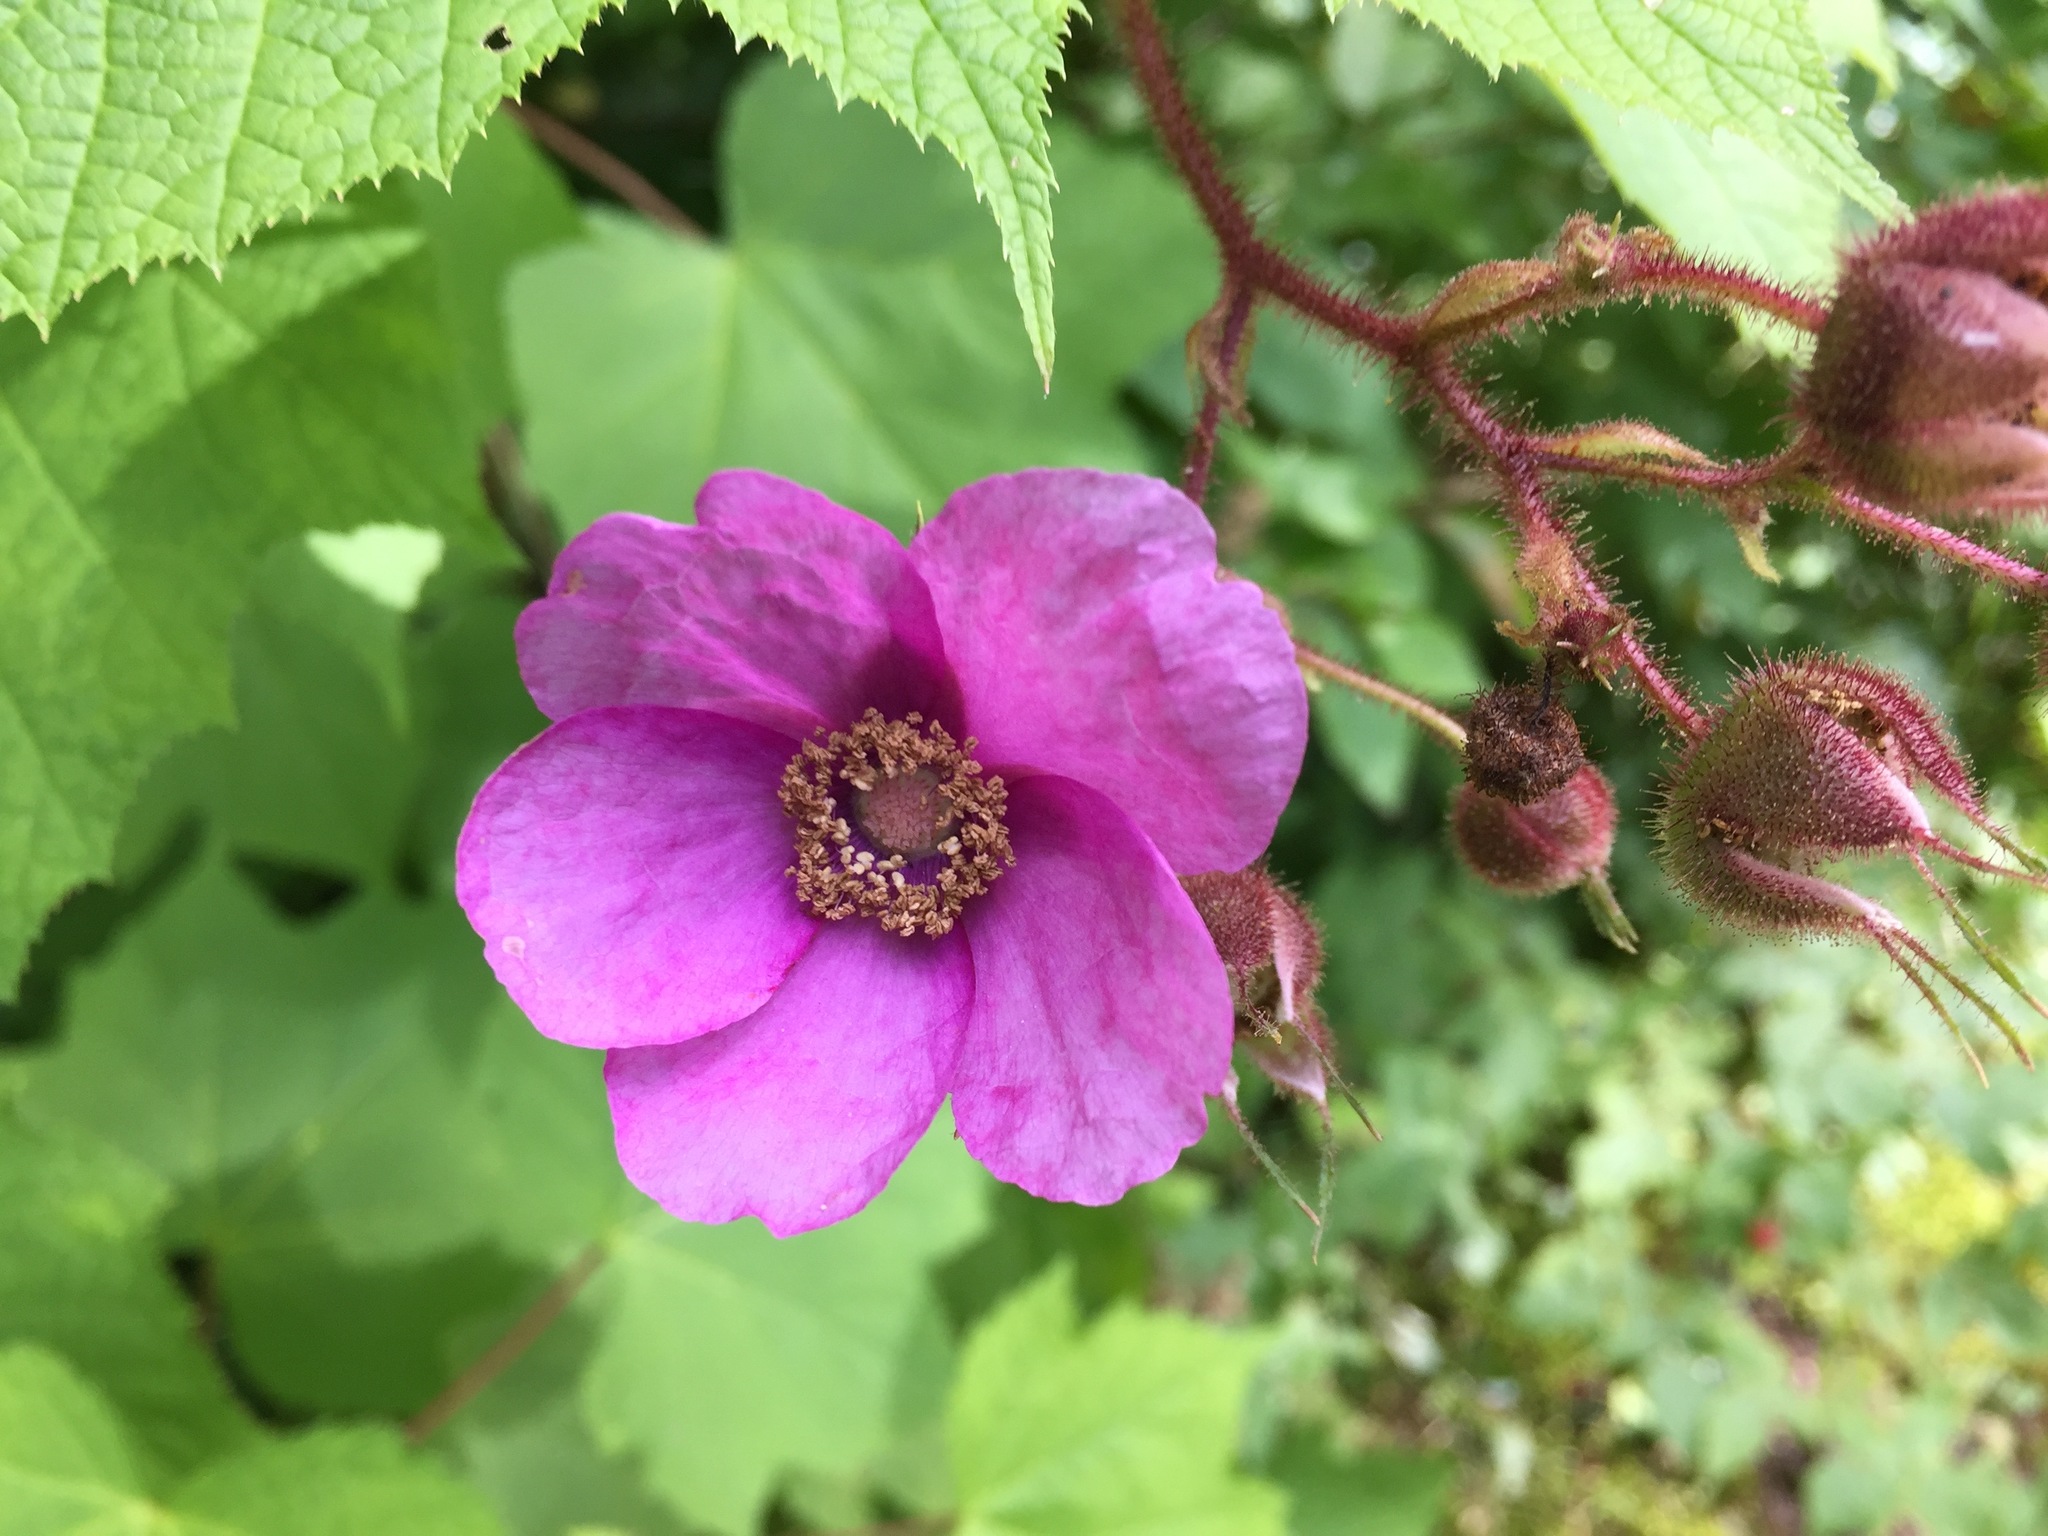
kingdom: Plantae
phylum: Tracheophyta
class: Magnoliopsida
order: Rosales
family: Rosaceae
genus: Rubus
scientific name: Rubus odoratus
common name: Purple-flowered raspberry
